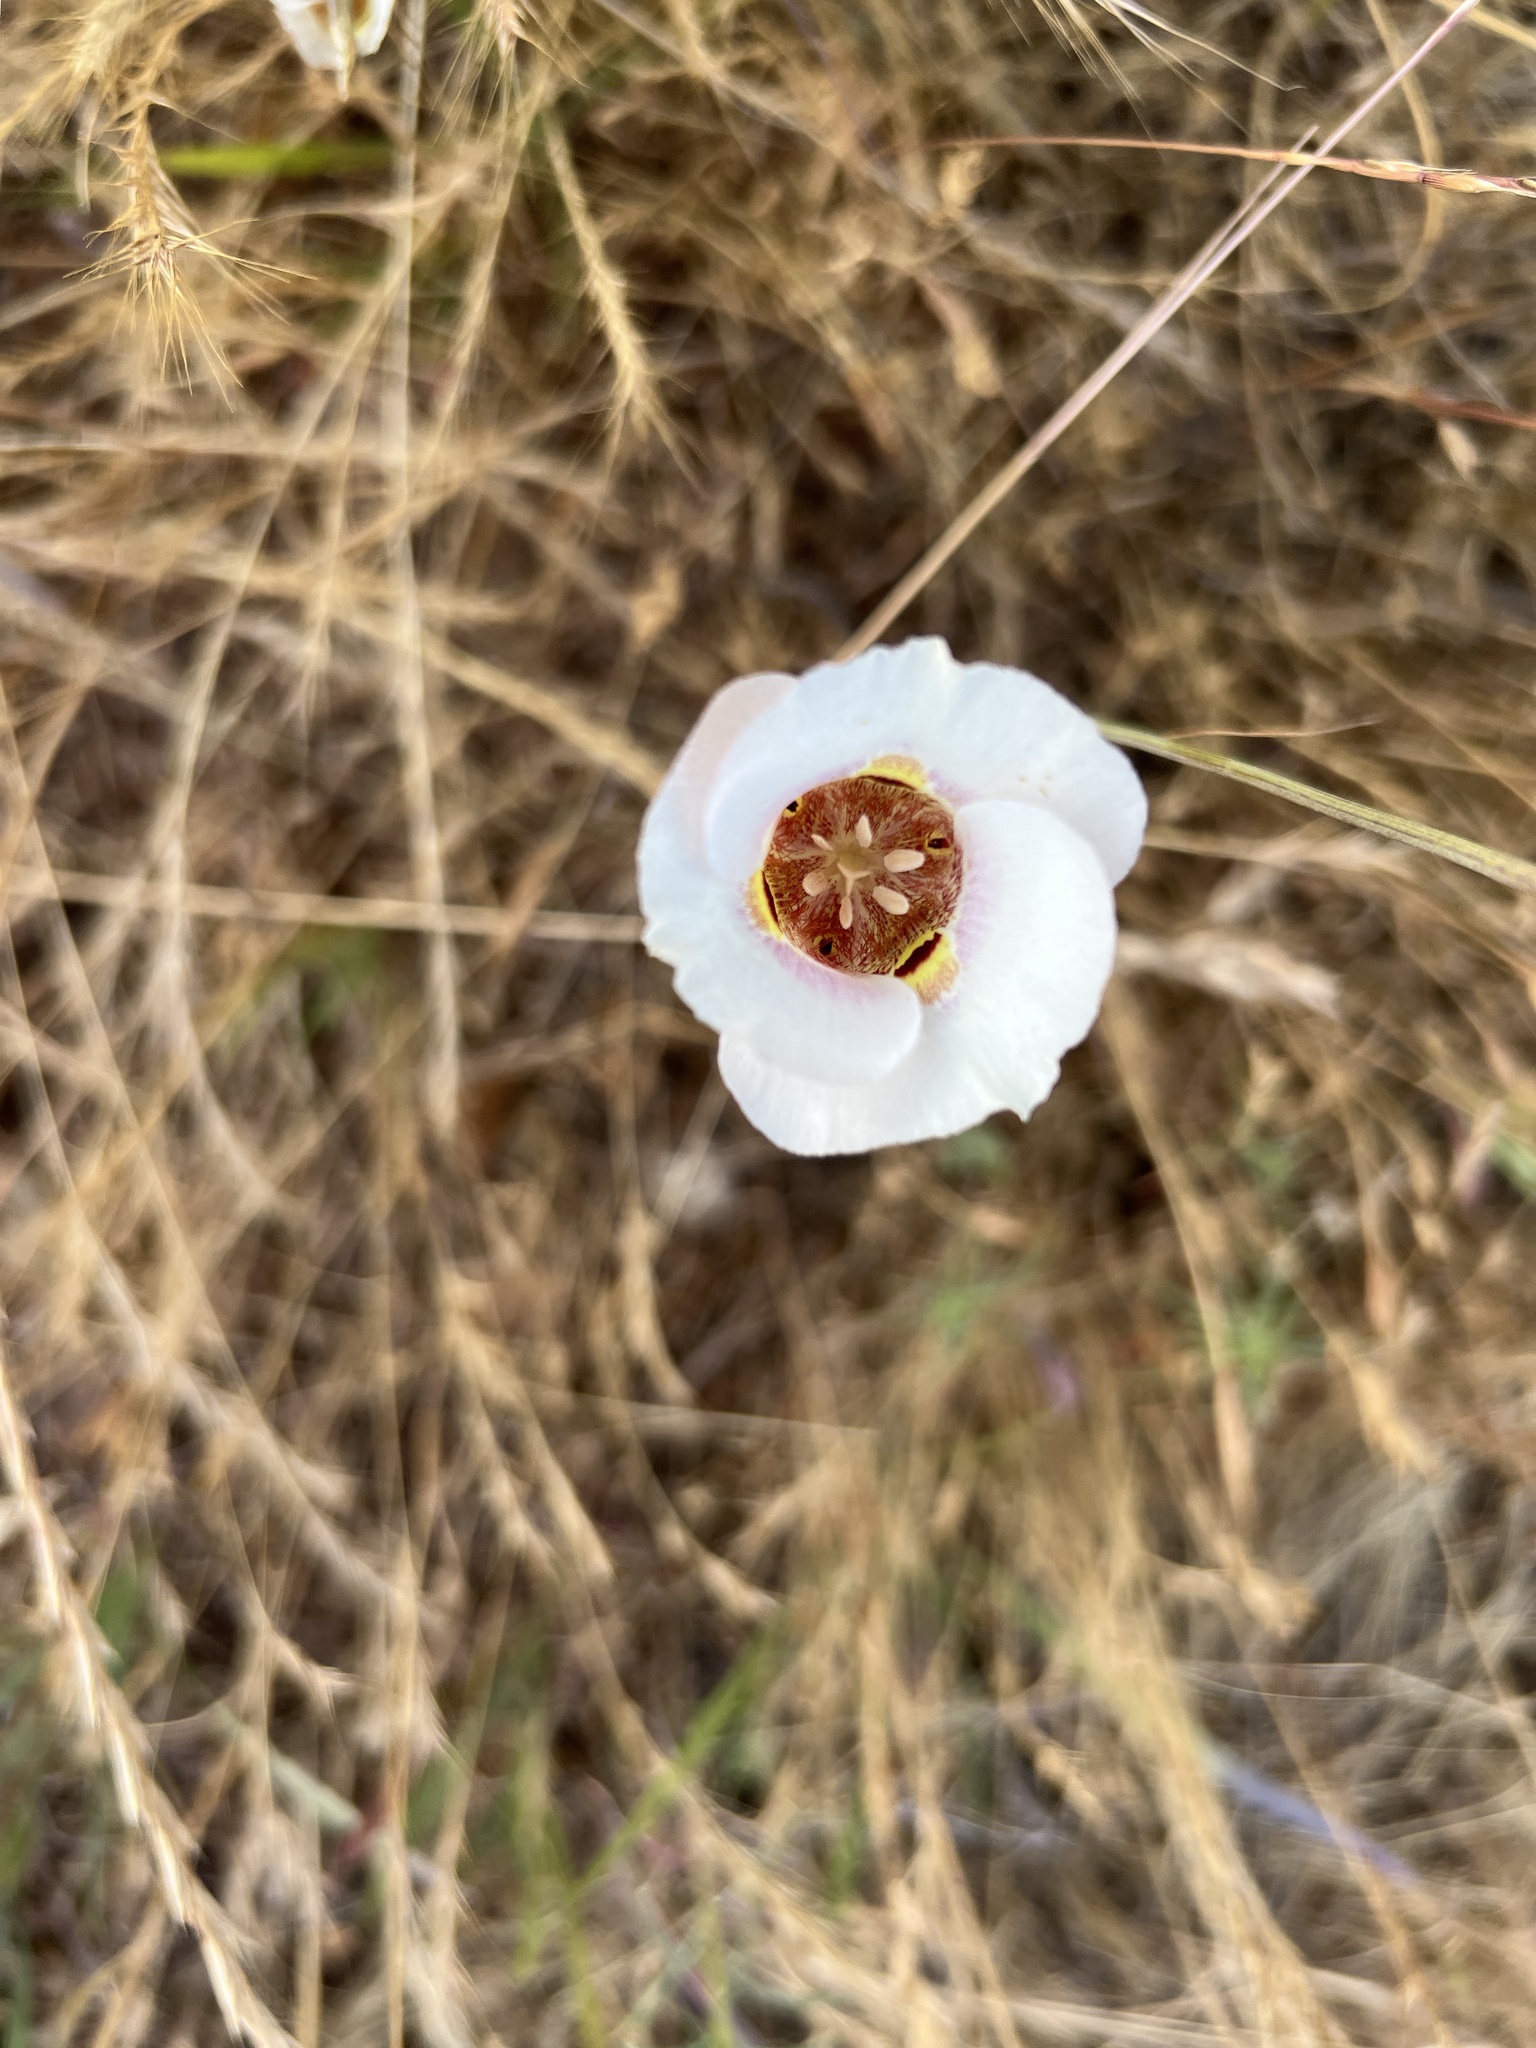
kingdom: Plantae
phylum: Tracheophyta
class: Liliopsida
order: Liliales
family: Liliaceae
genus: Calochortus
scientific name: Calochortus argillosus
